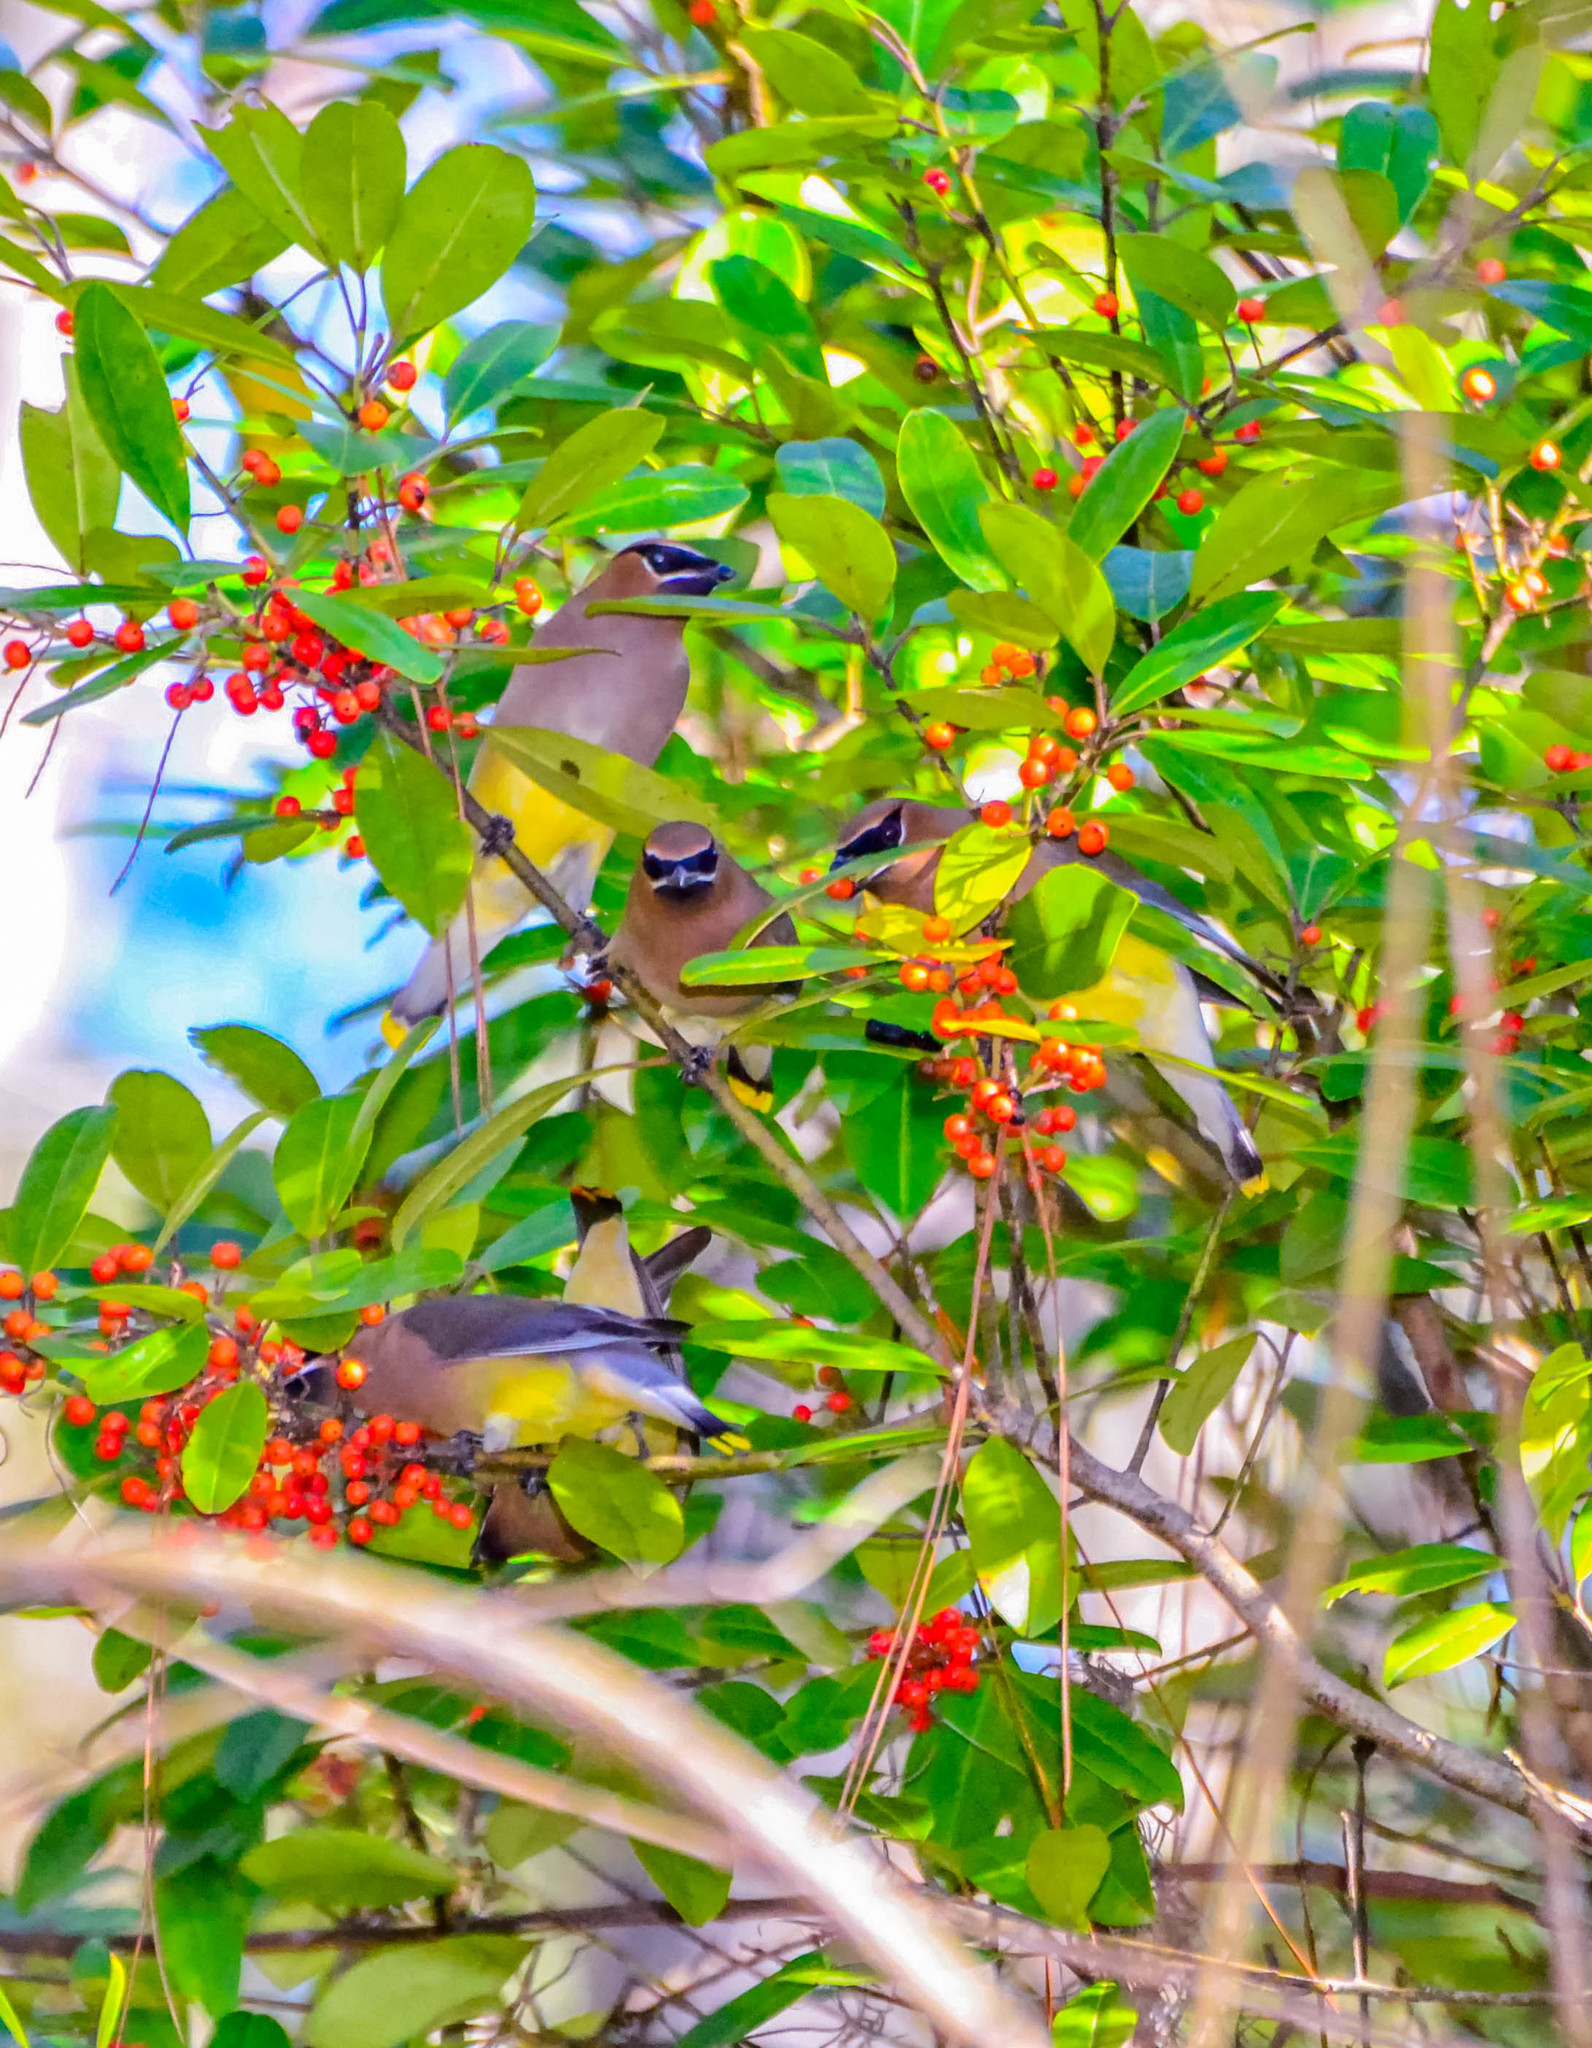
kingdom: Animalia
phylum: Chordata
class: Aves
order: Passeriformes
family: Bombycillidae
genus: Bombycilla
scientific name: Bombycilla cedrorum
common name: Cedar waxwing
